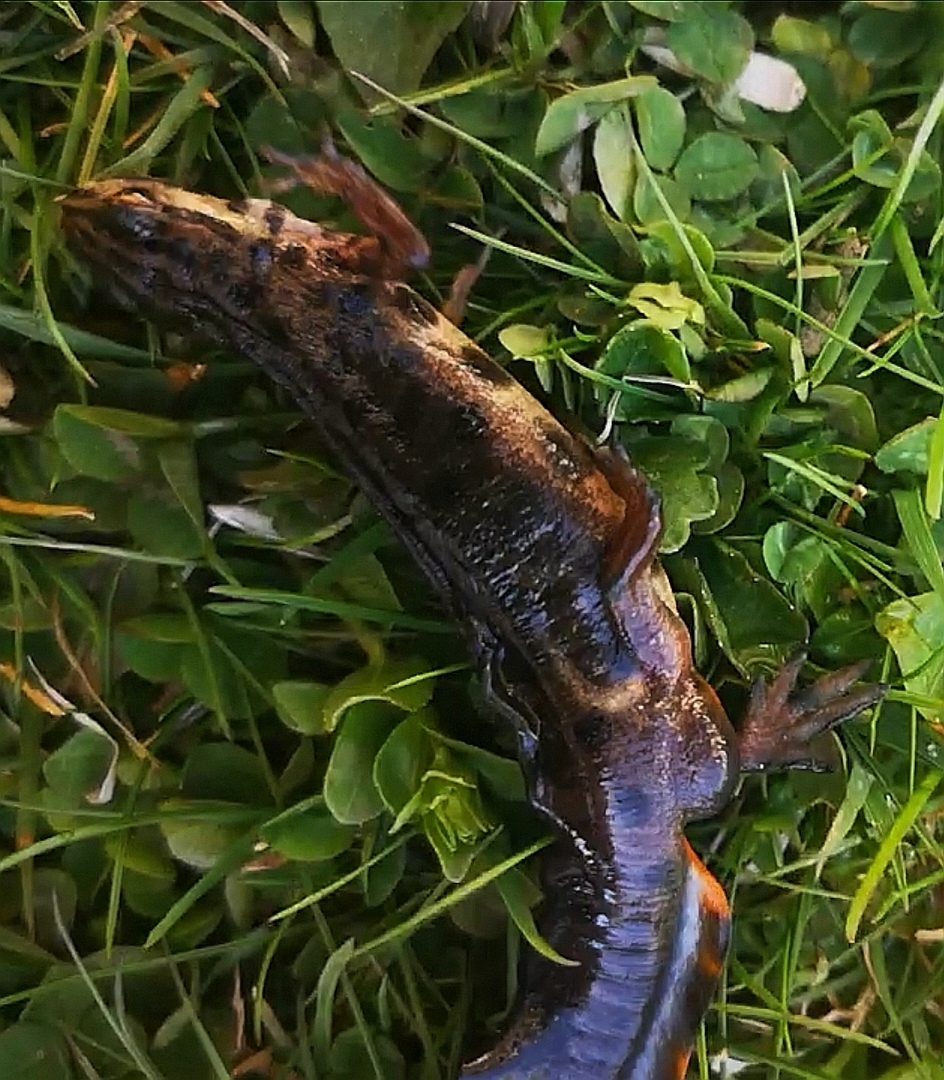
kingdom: Animalia
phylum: Chordata
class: Amphibia
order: Caudata
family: Salamandridae
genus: Lissotriton
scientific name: Lissotriton vulgaris
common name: Smooth newt
